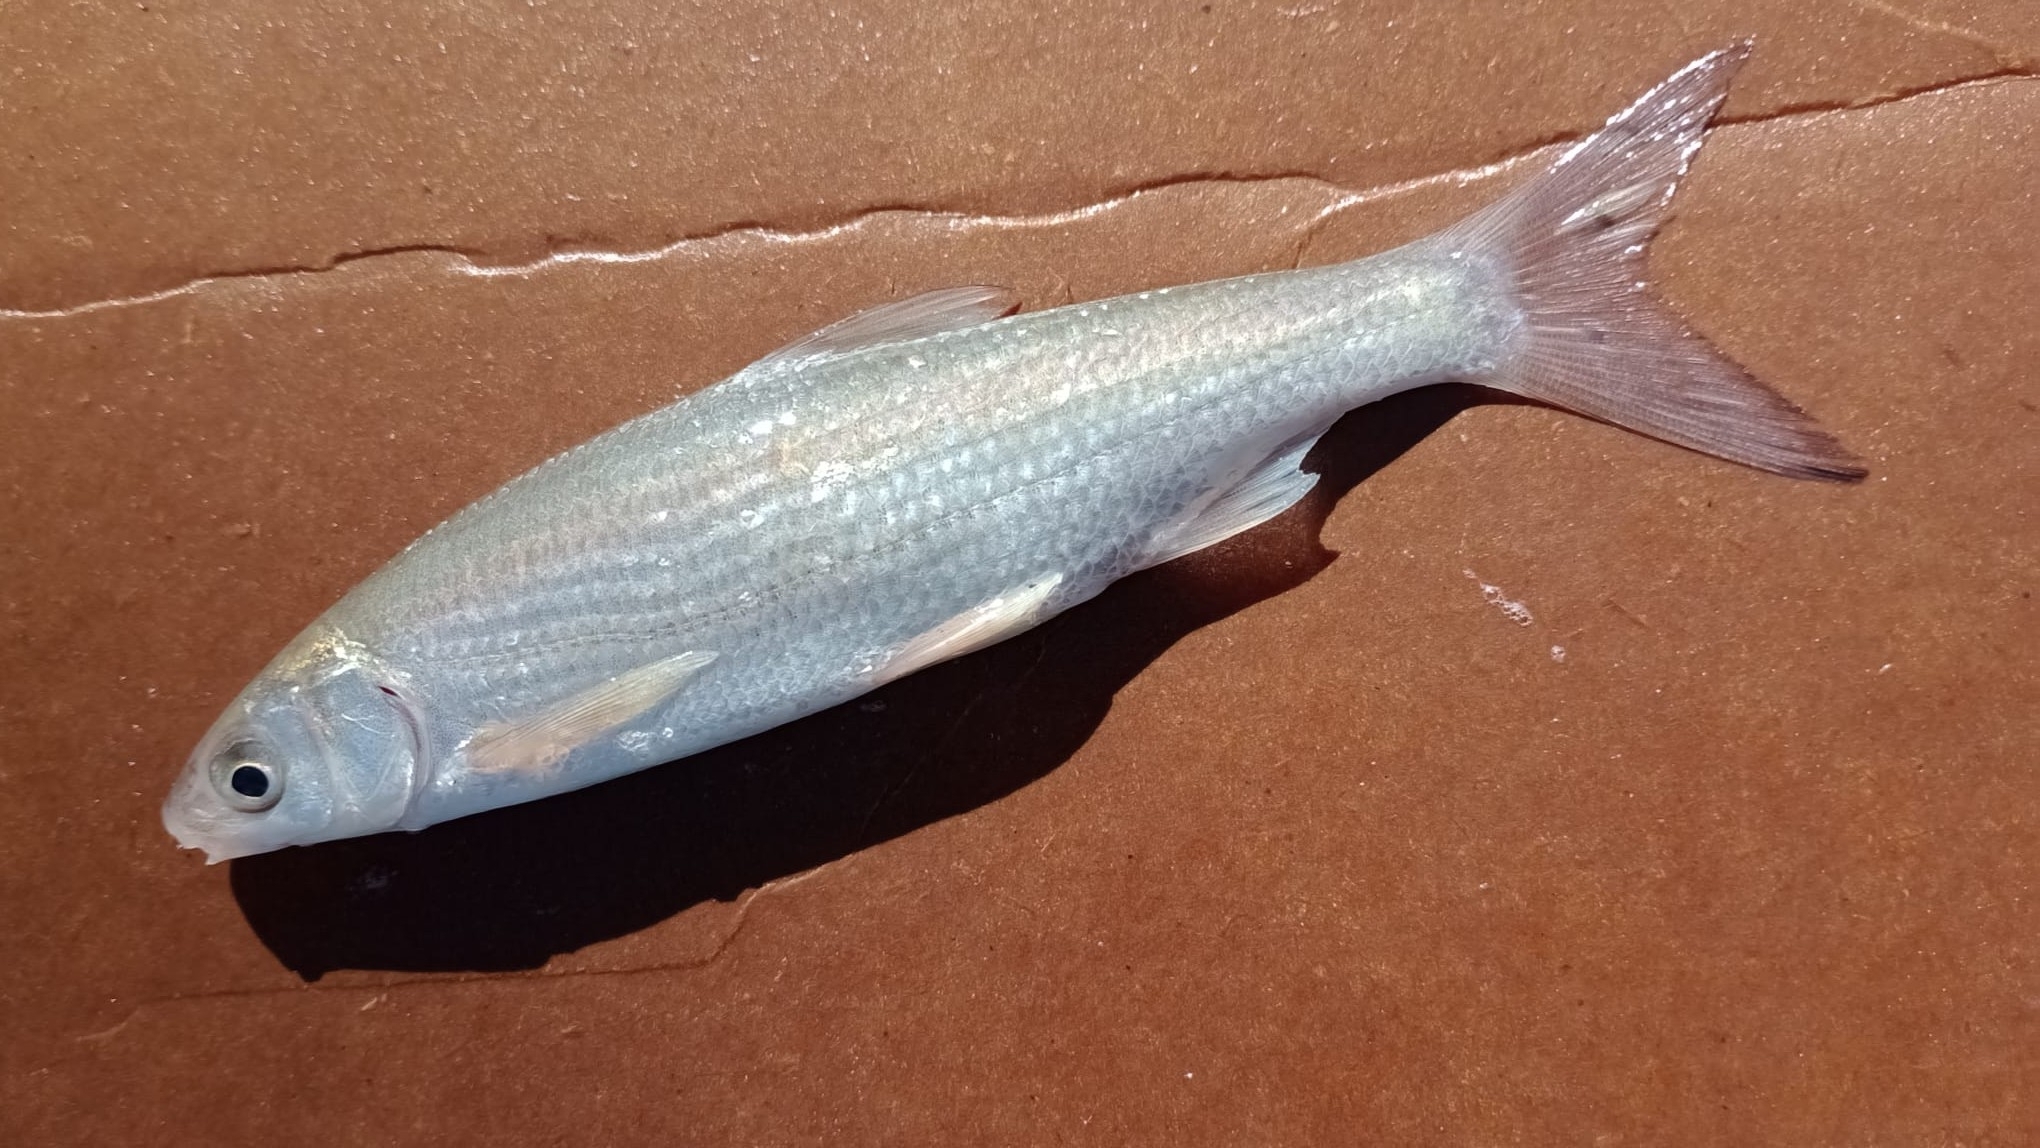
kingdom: Animalia
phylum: Chordata
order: Cypriniformes
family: Cyprinidae
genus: Protochondrostoma
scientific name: Protochondrostoma genei
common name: South european nase
